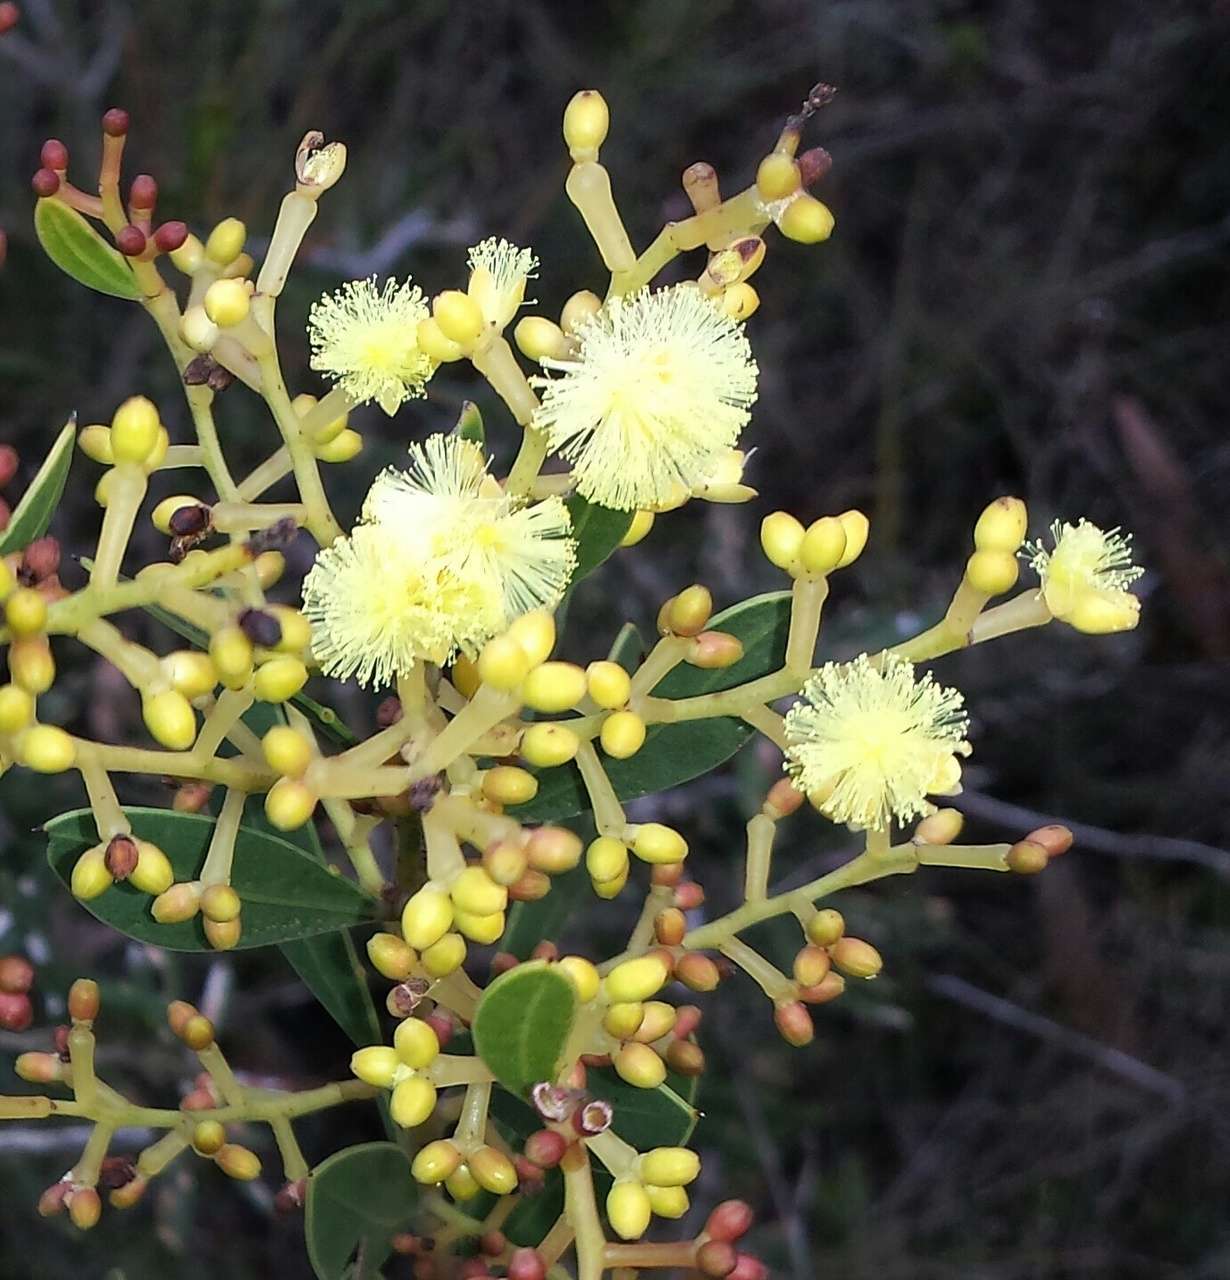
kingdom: Plantae
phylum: Tracheophyta
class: Magnoliopsida
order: Fabales
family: Fabaceae
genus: Acacia
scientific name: Acacia myrtifolia
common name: Myrtle wattle
